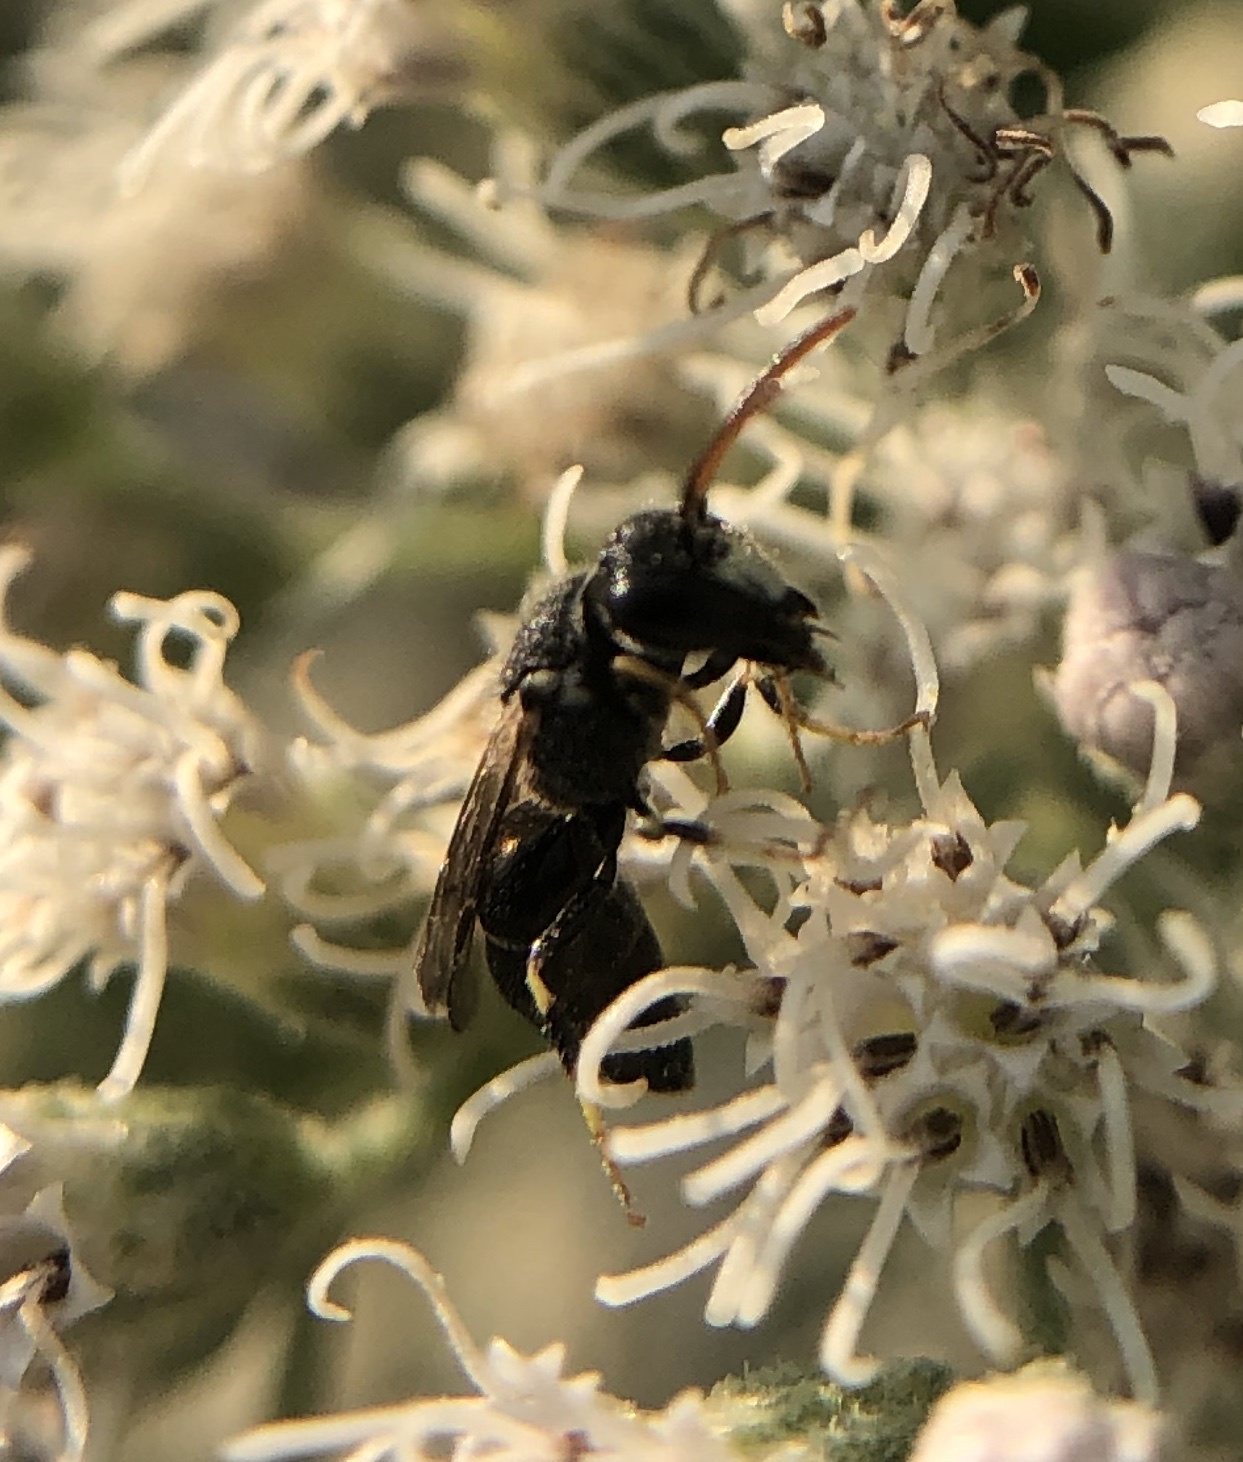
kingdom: Animalia
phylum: Arthropoda
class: Insecta
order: Hymenoptera
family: Colletidae
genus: Hylaeus
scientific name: Hylaeus punctatus
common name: Punctate masked bee
